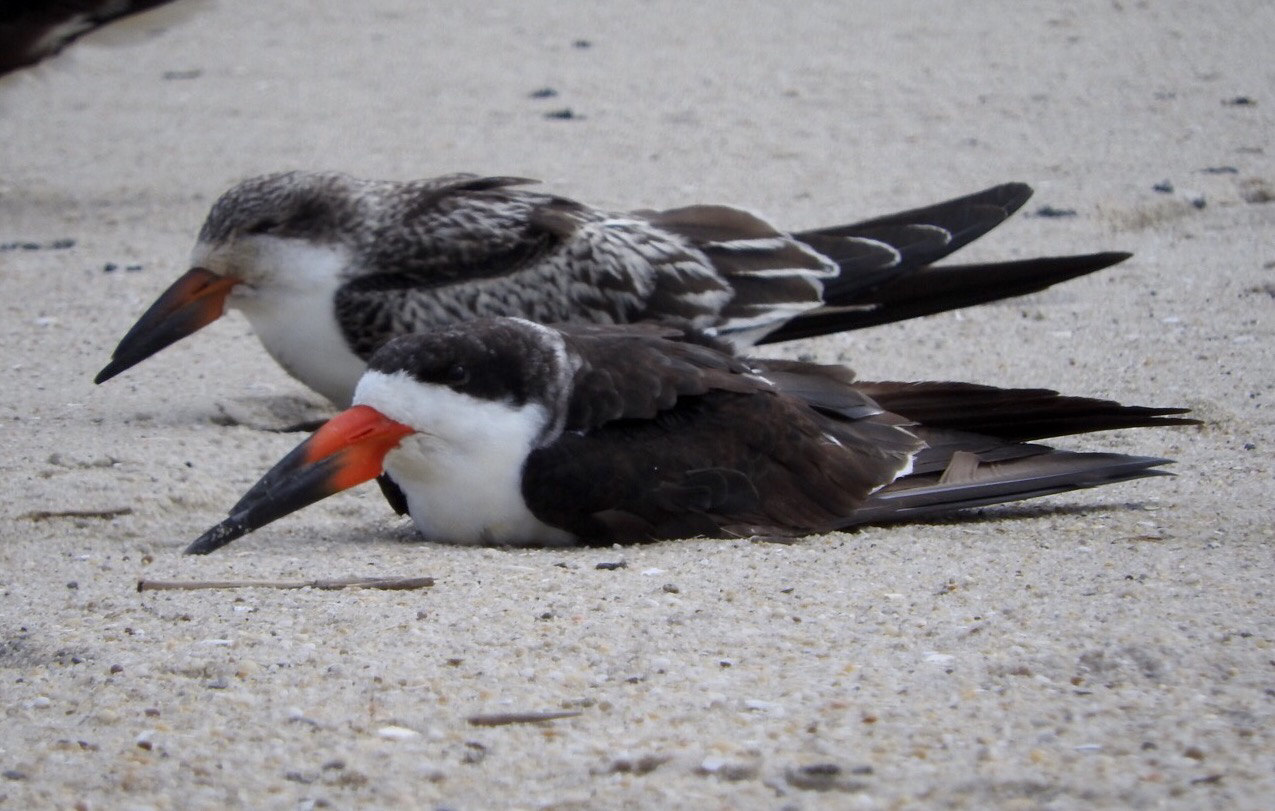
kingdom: Animalia
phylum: Chordata
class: Aves
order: Charadriiformes
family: Laridae
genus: Rynchops
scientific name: Rynchops niger
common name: Black skimmer
